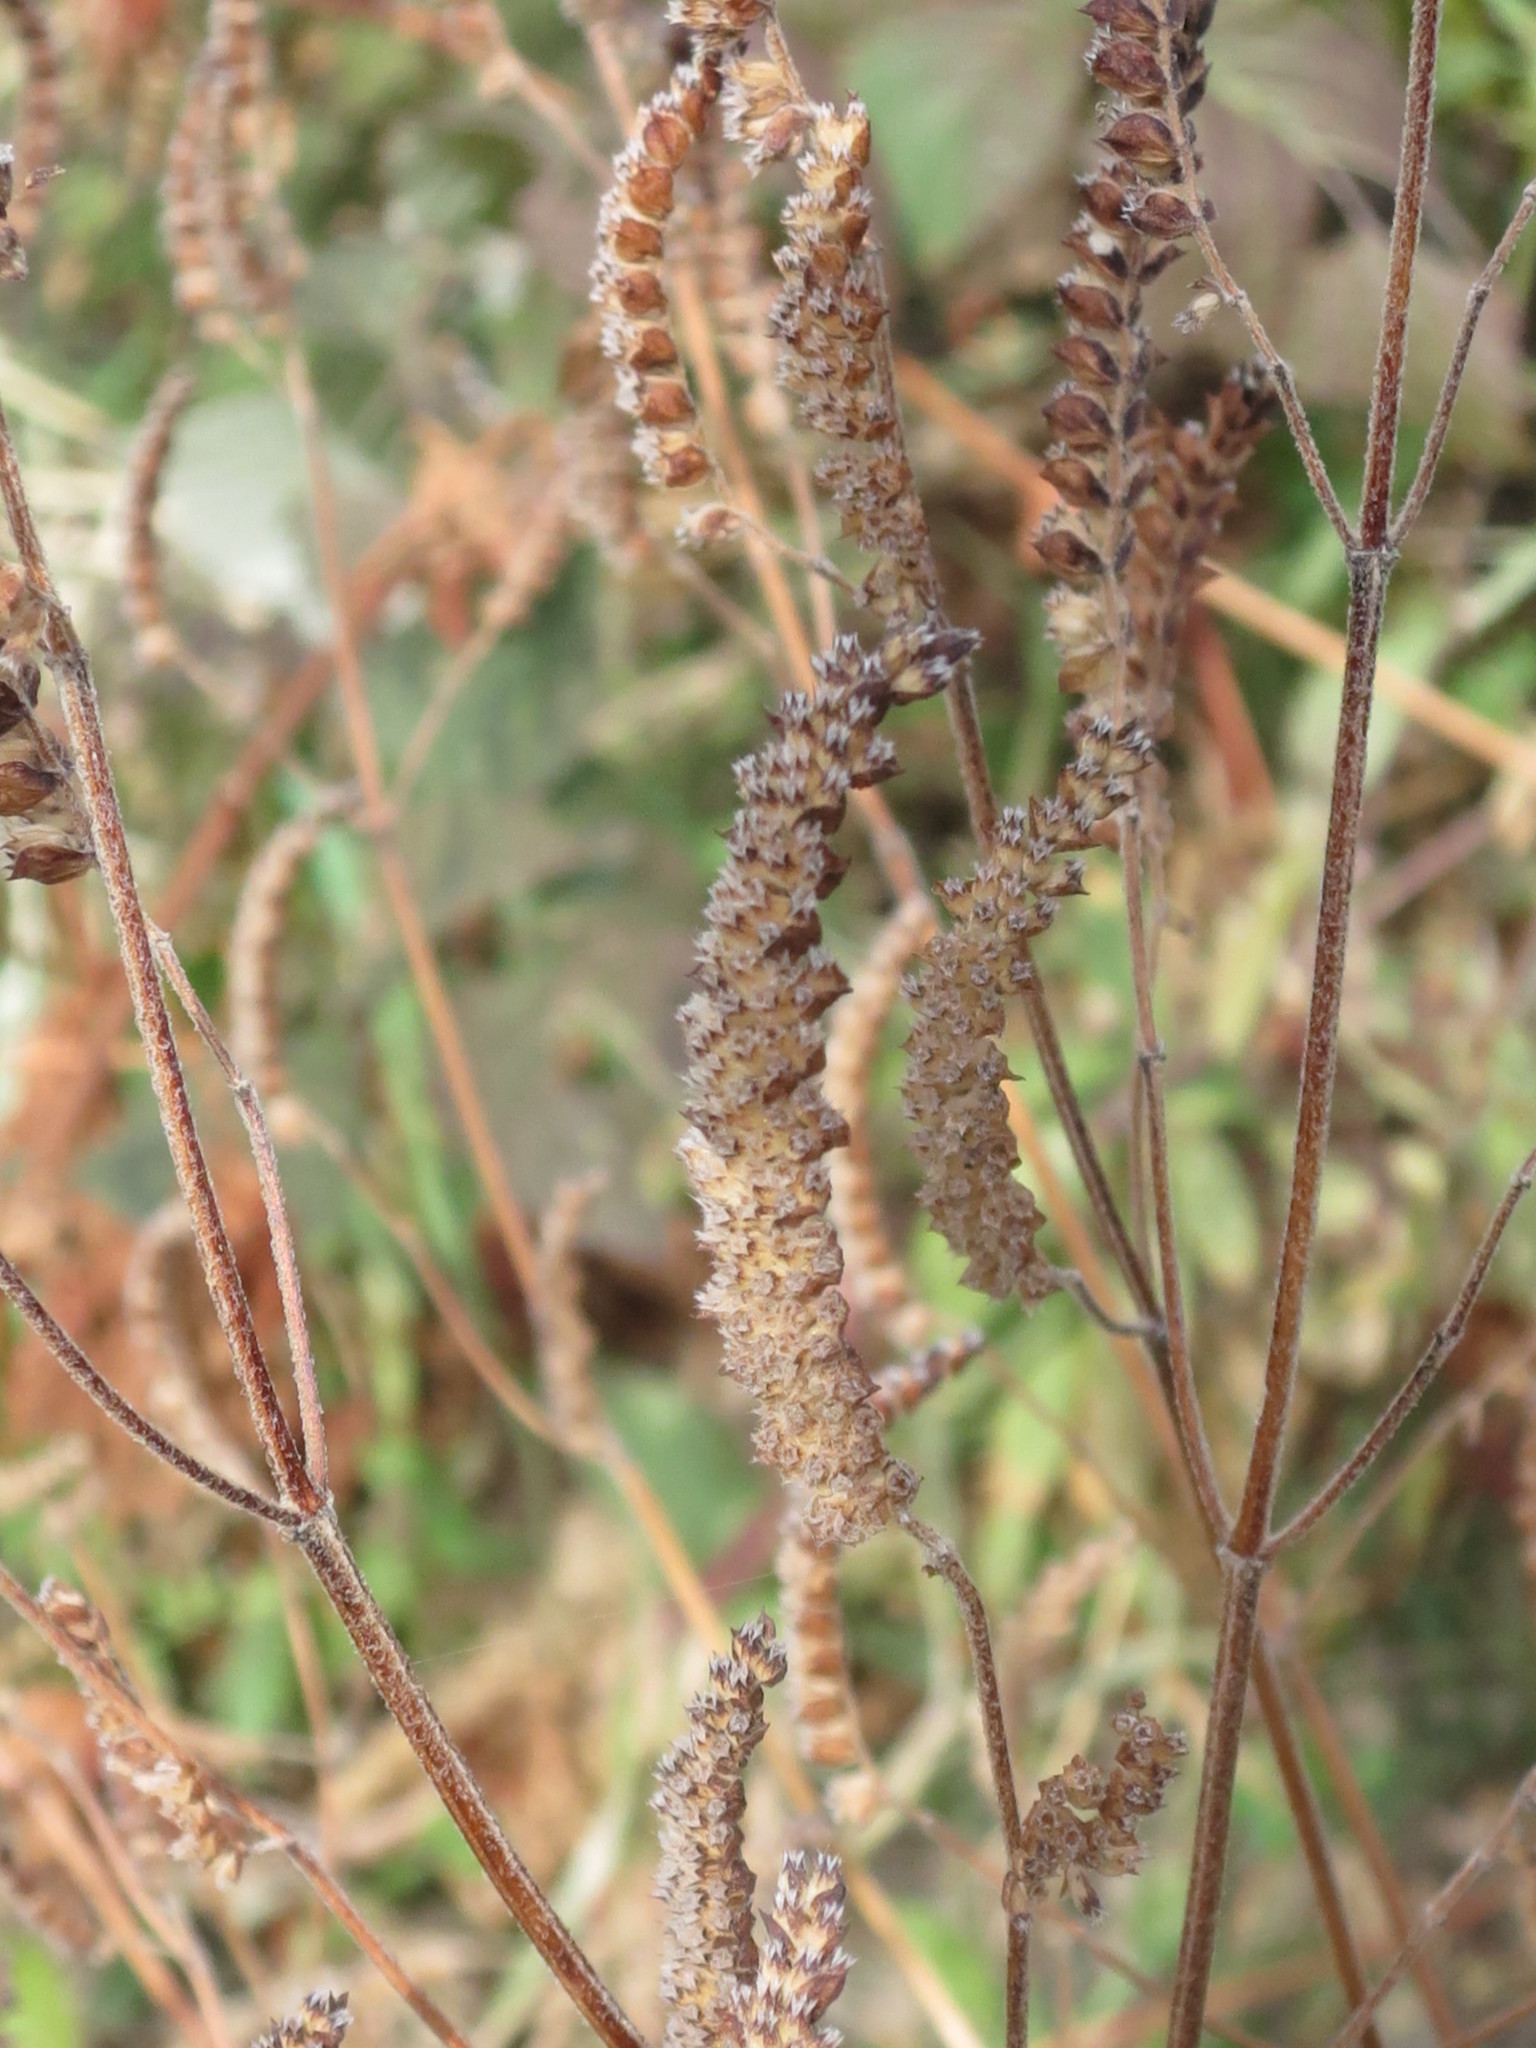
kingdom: Plantae
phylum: Tracheophyta
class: Magnoliopsida
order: Lamiales
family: Lamiaceae
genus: Elsholtzia
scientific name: Elsholtzia ciliata
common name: Ciliate elsholtzia
